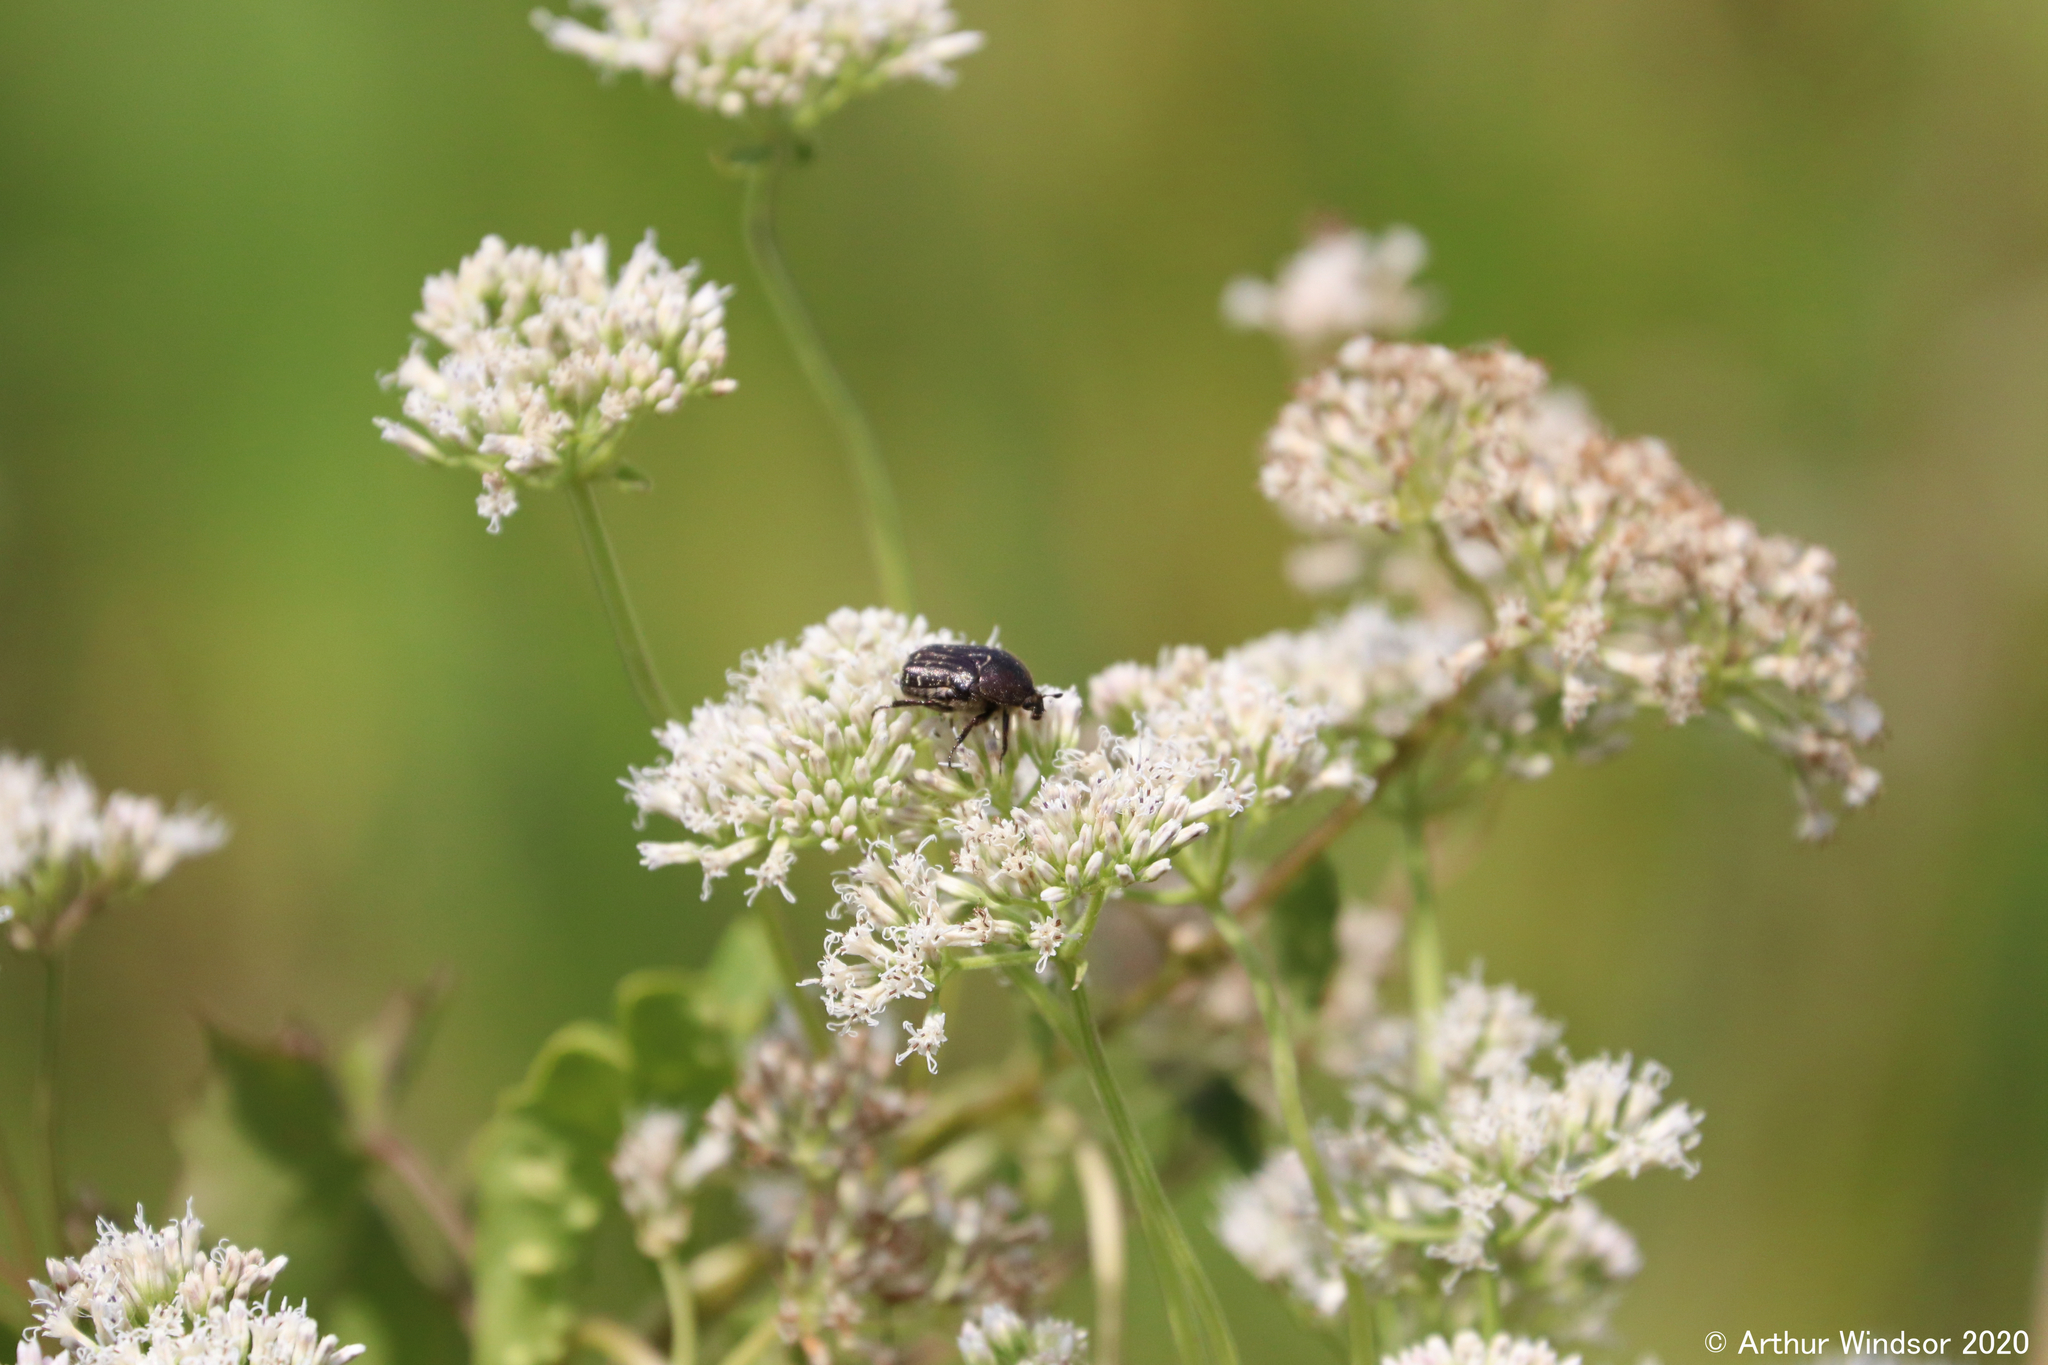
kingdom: Animalia
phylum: Arthropoda
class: Insecta
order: Coleoptera
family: Scarabaeidae
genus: Euphoria
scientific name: Euphoria sepulcralis
